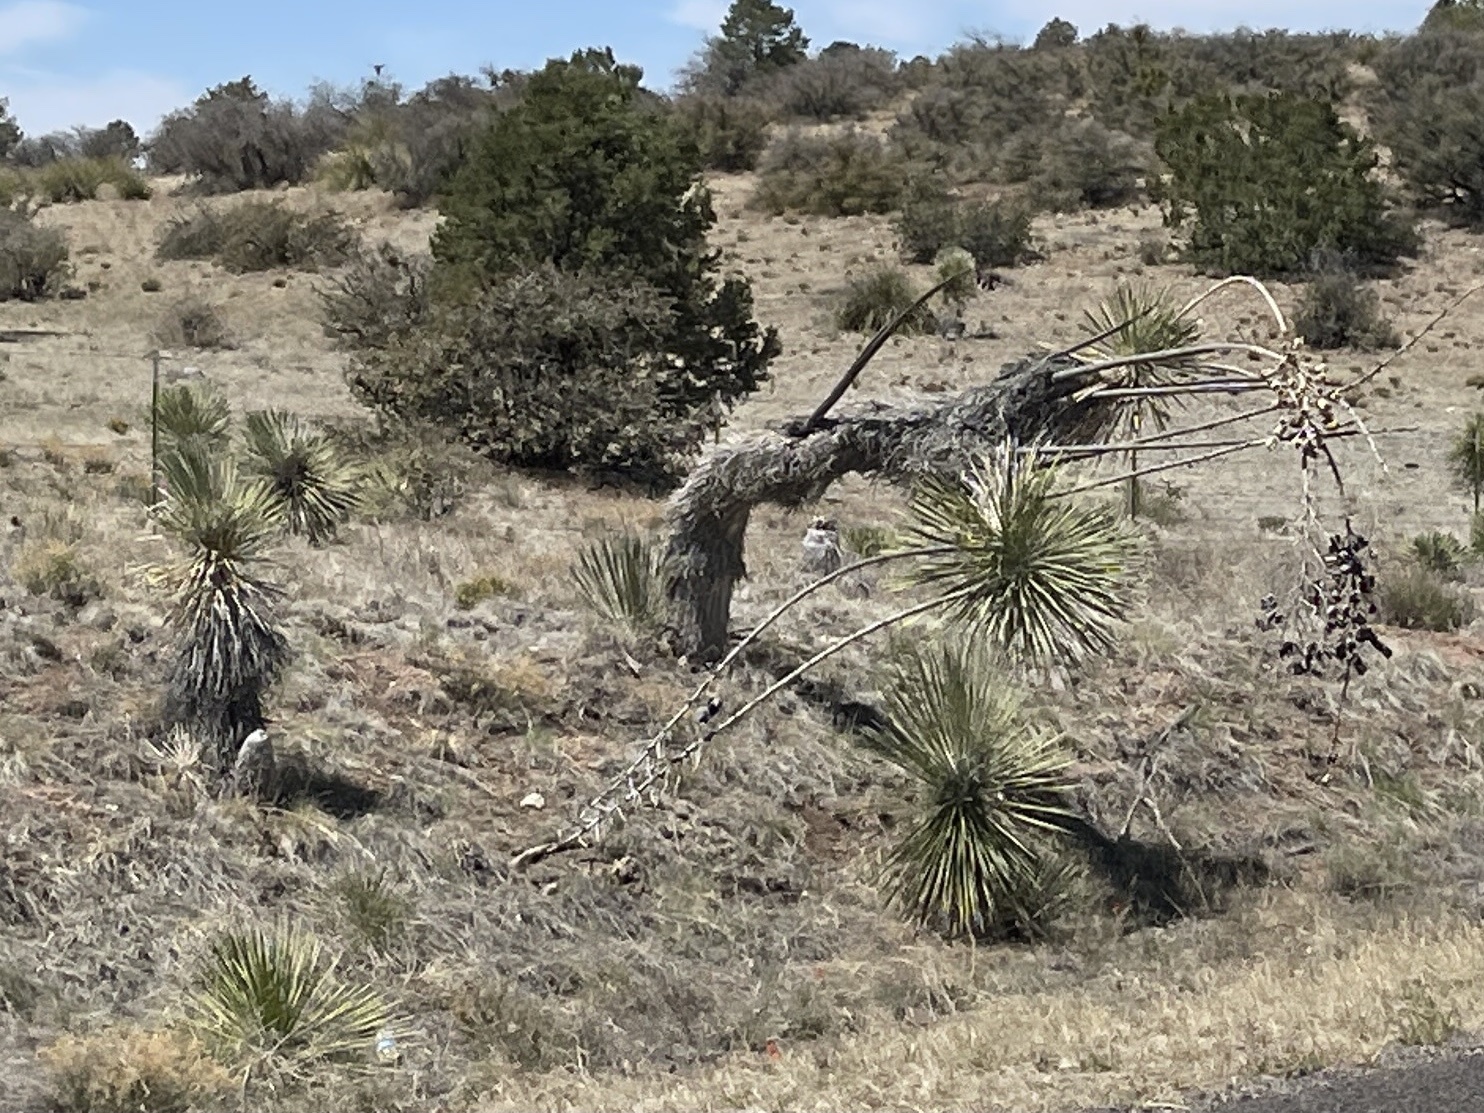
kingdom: Plantae
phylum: Tracheophyta
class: Liliopsida
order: Asparagales
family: Asparagaceae
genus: Yucca
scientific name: Yucca elata
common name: Palmella
